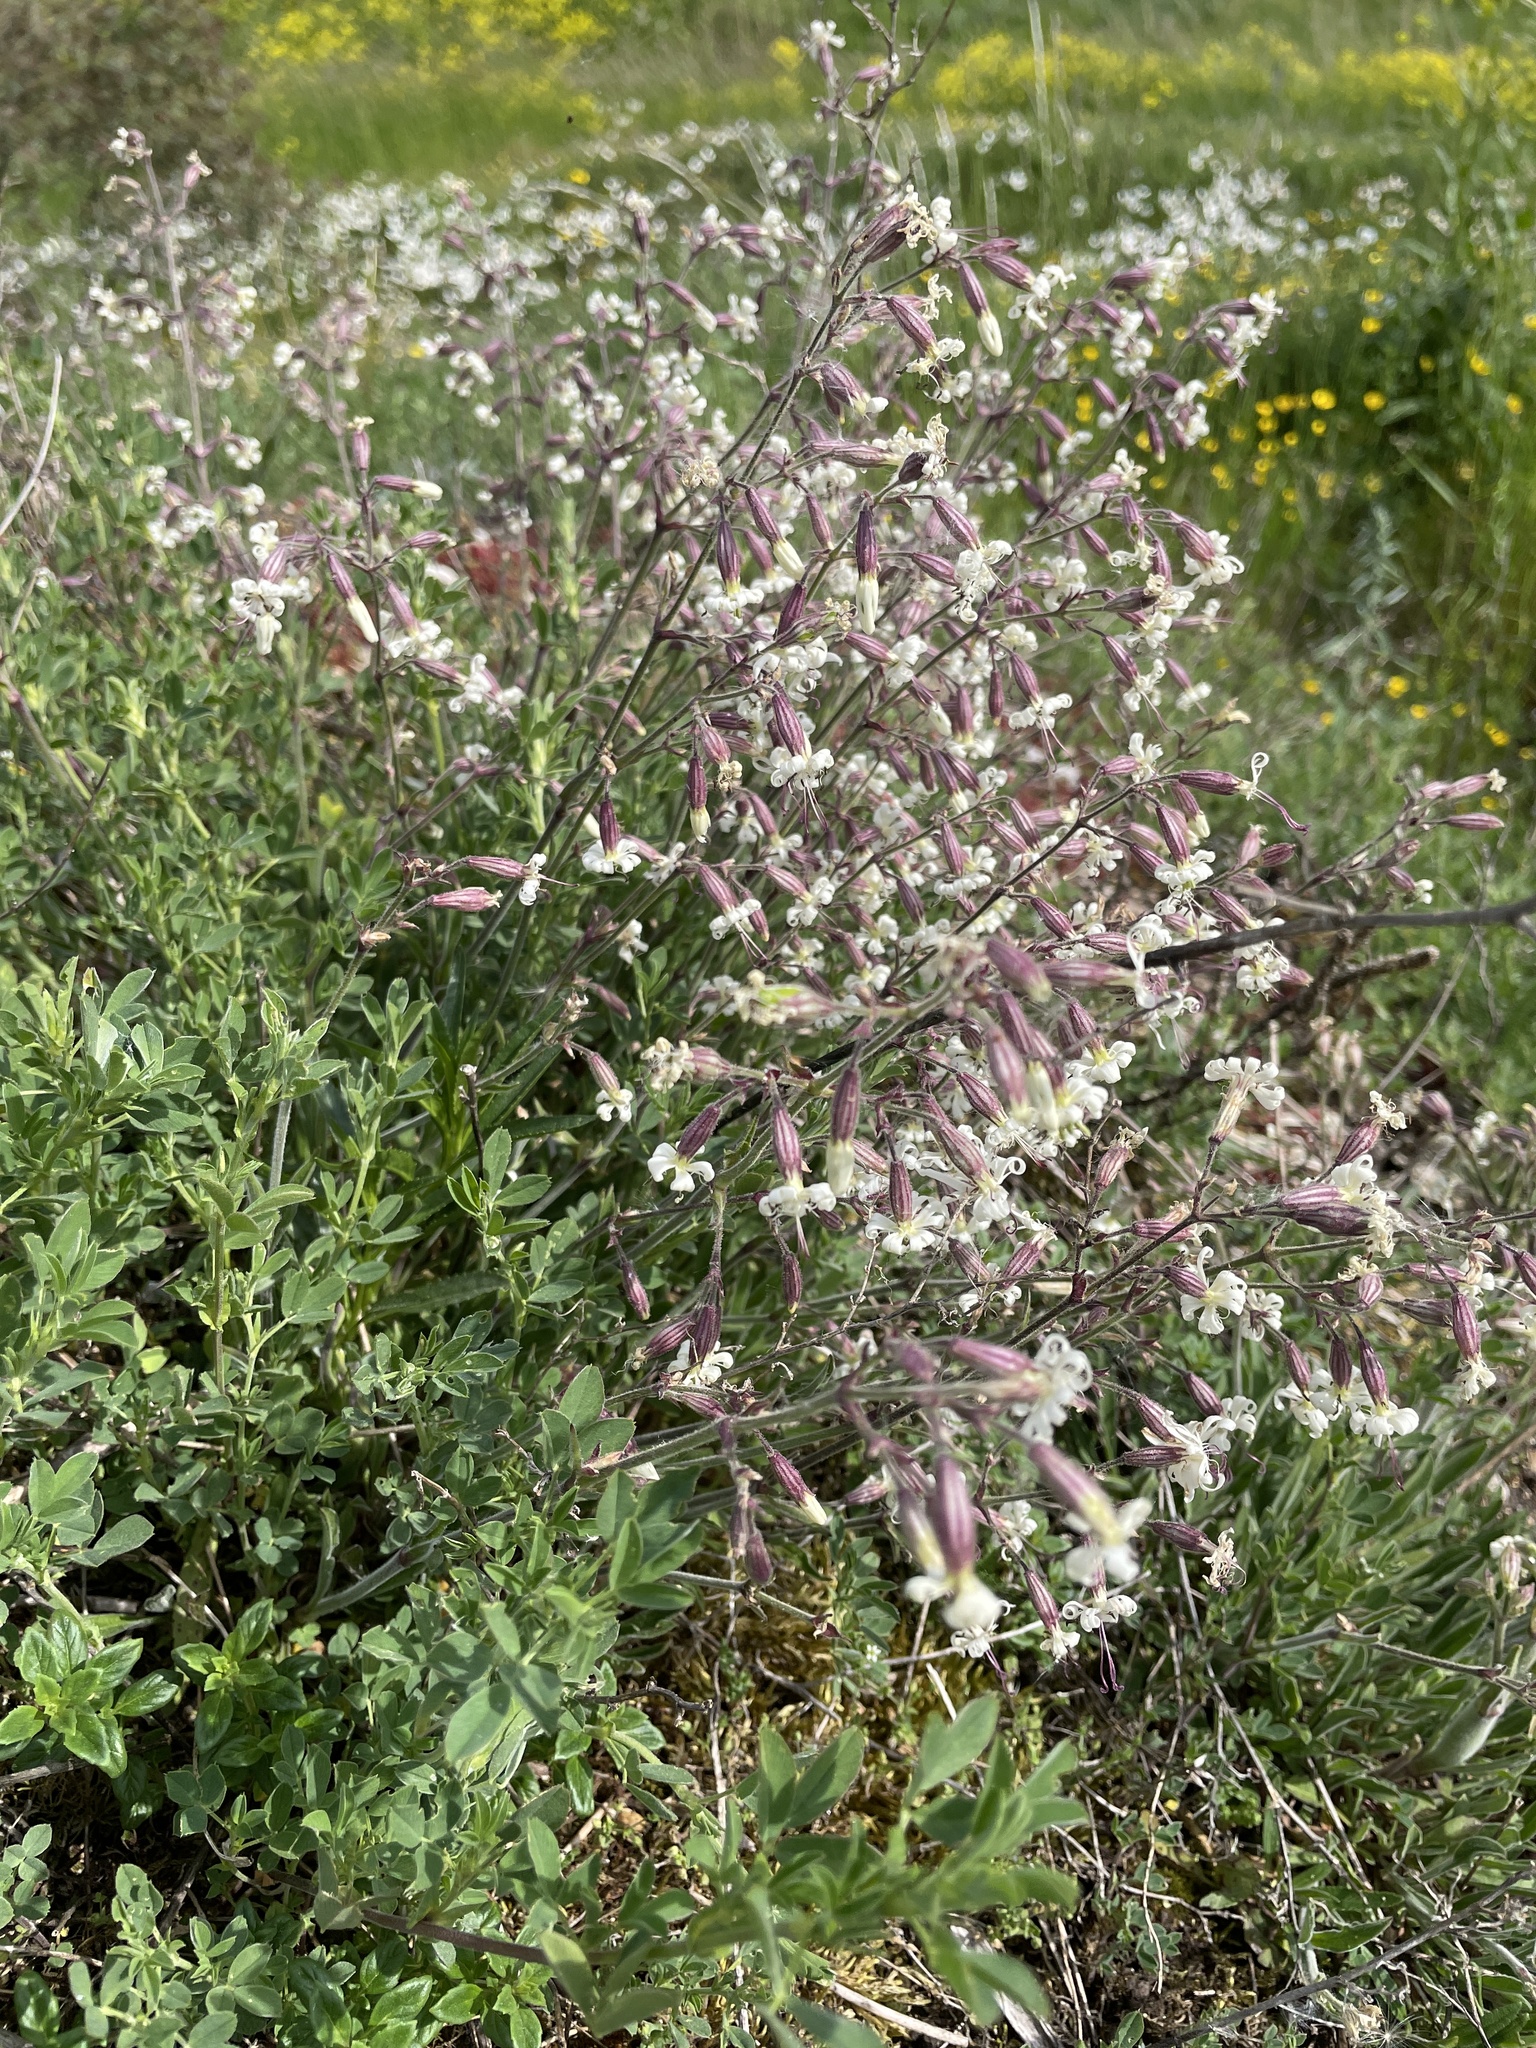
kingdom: Plantae
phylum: Tracheophyta
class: Magnoliopsida
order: Caryophyllales
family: Caryophyllaceae
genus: Silene
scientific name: Silene nutans
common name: Nottingham catchfly
